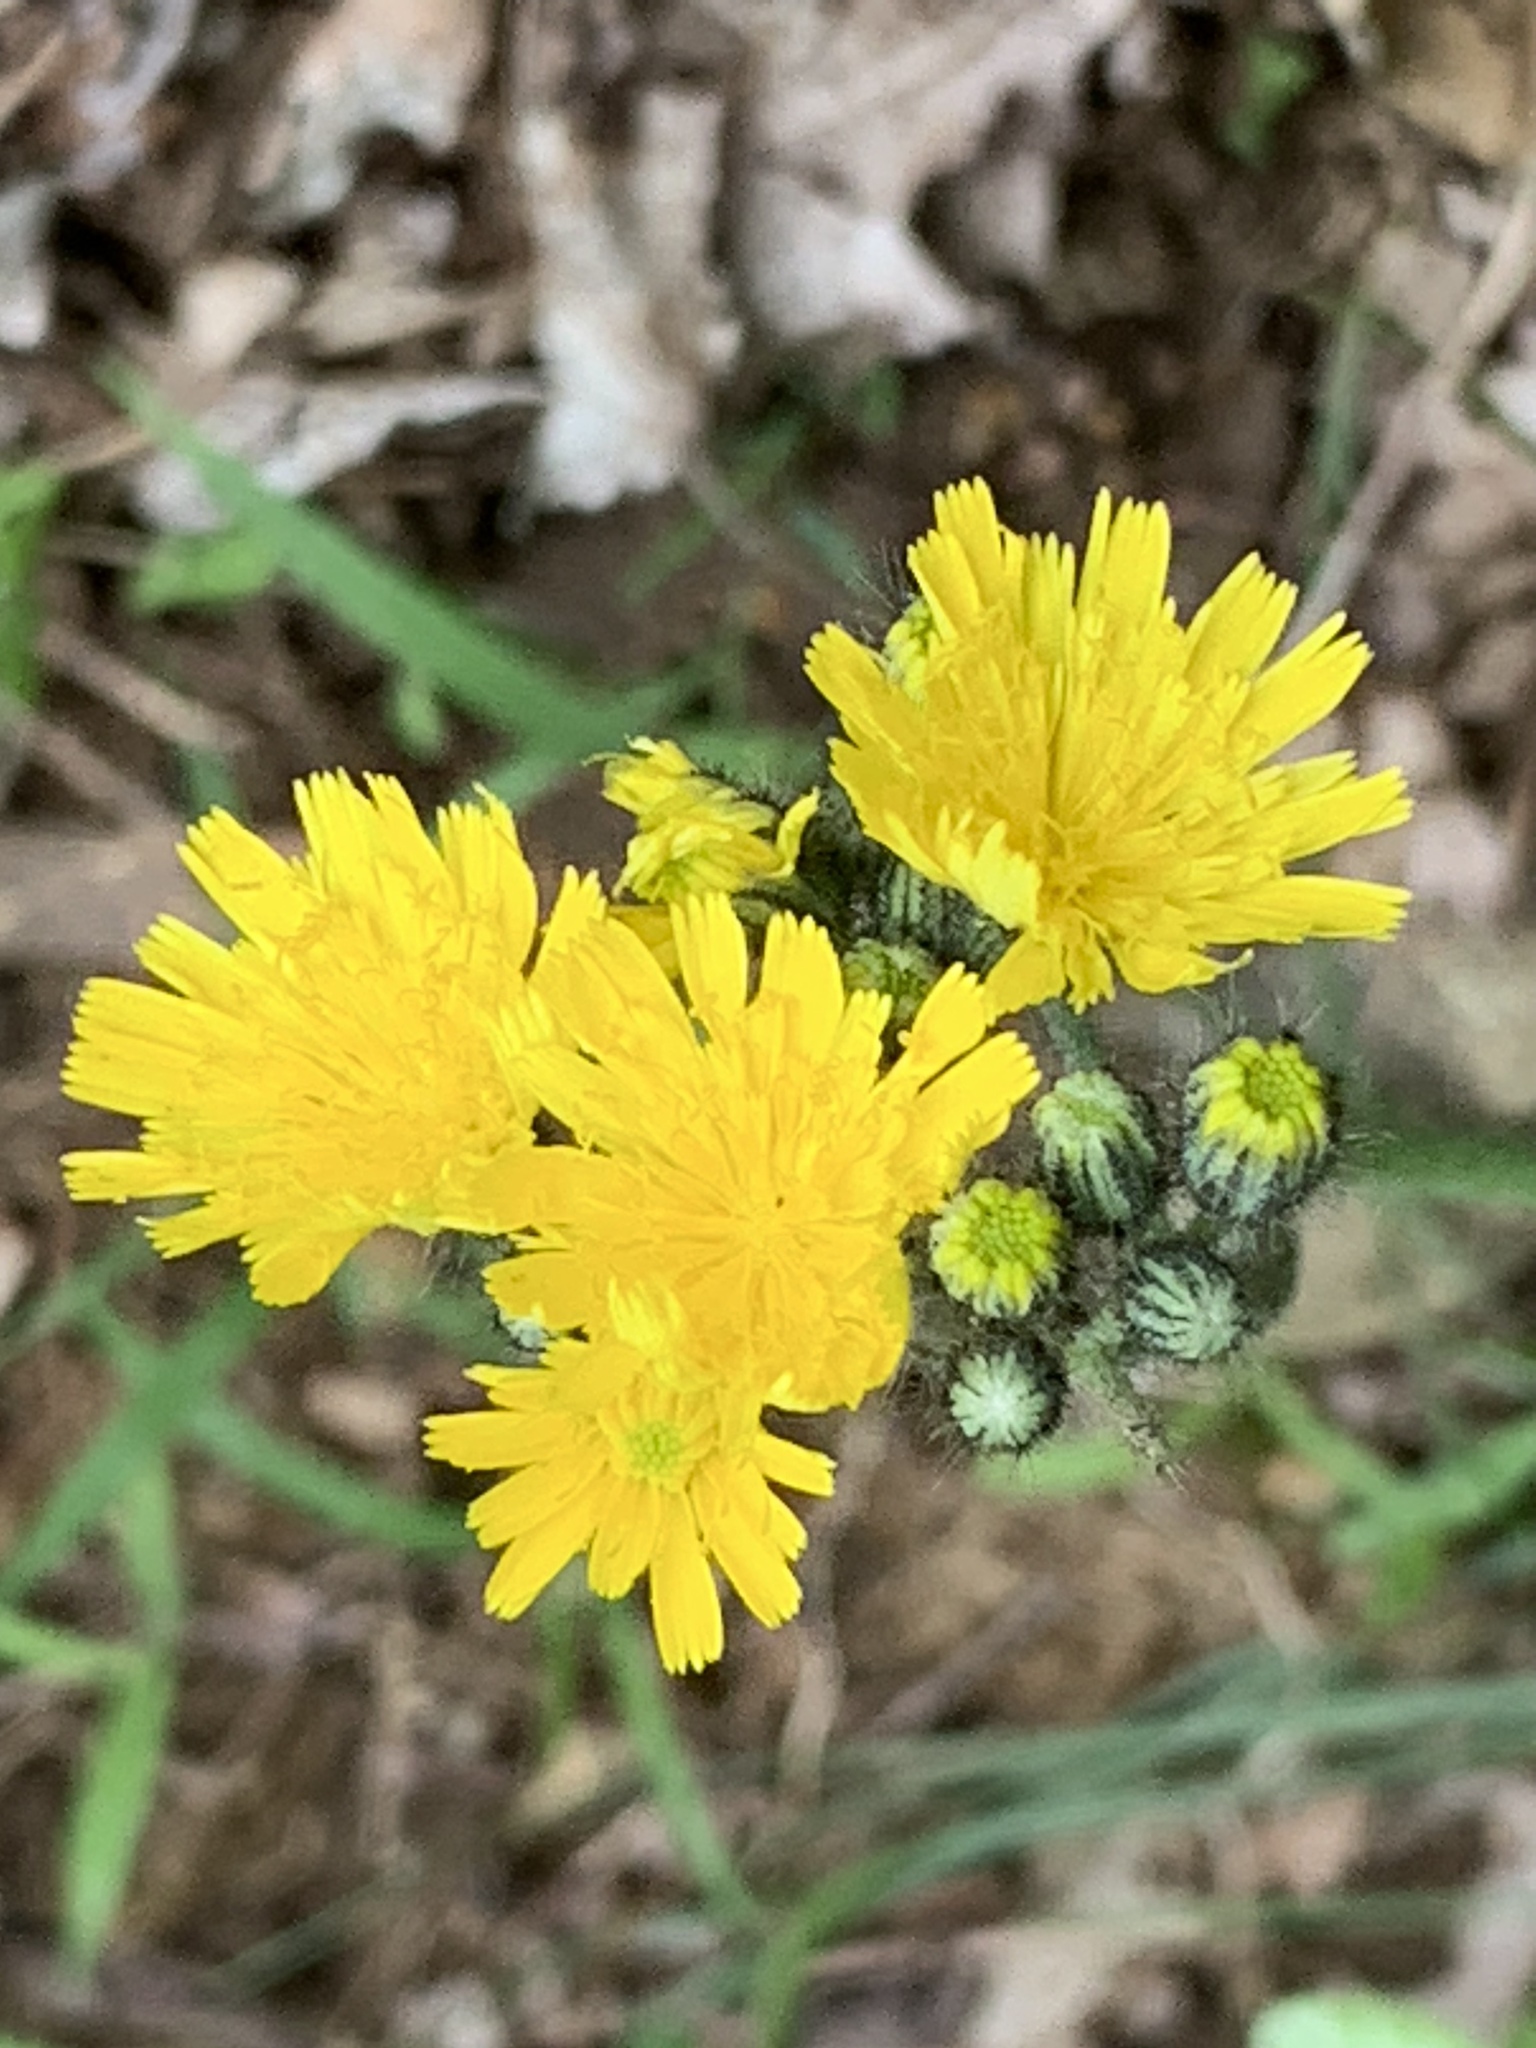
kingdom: Plantae
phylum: Tracheophyta
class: Magnoliopsida
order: Asterales
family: Asteraceae
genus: Pilosella
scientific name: Pilosella piloselloides
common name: Glaucous king-devil
